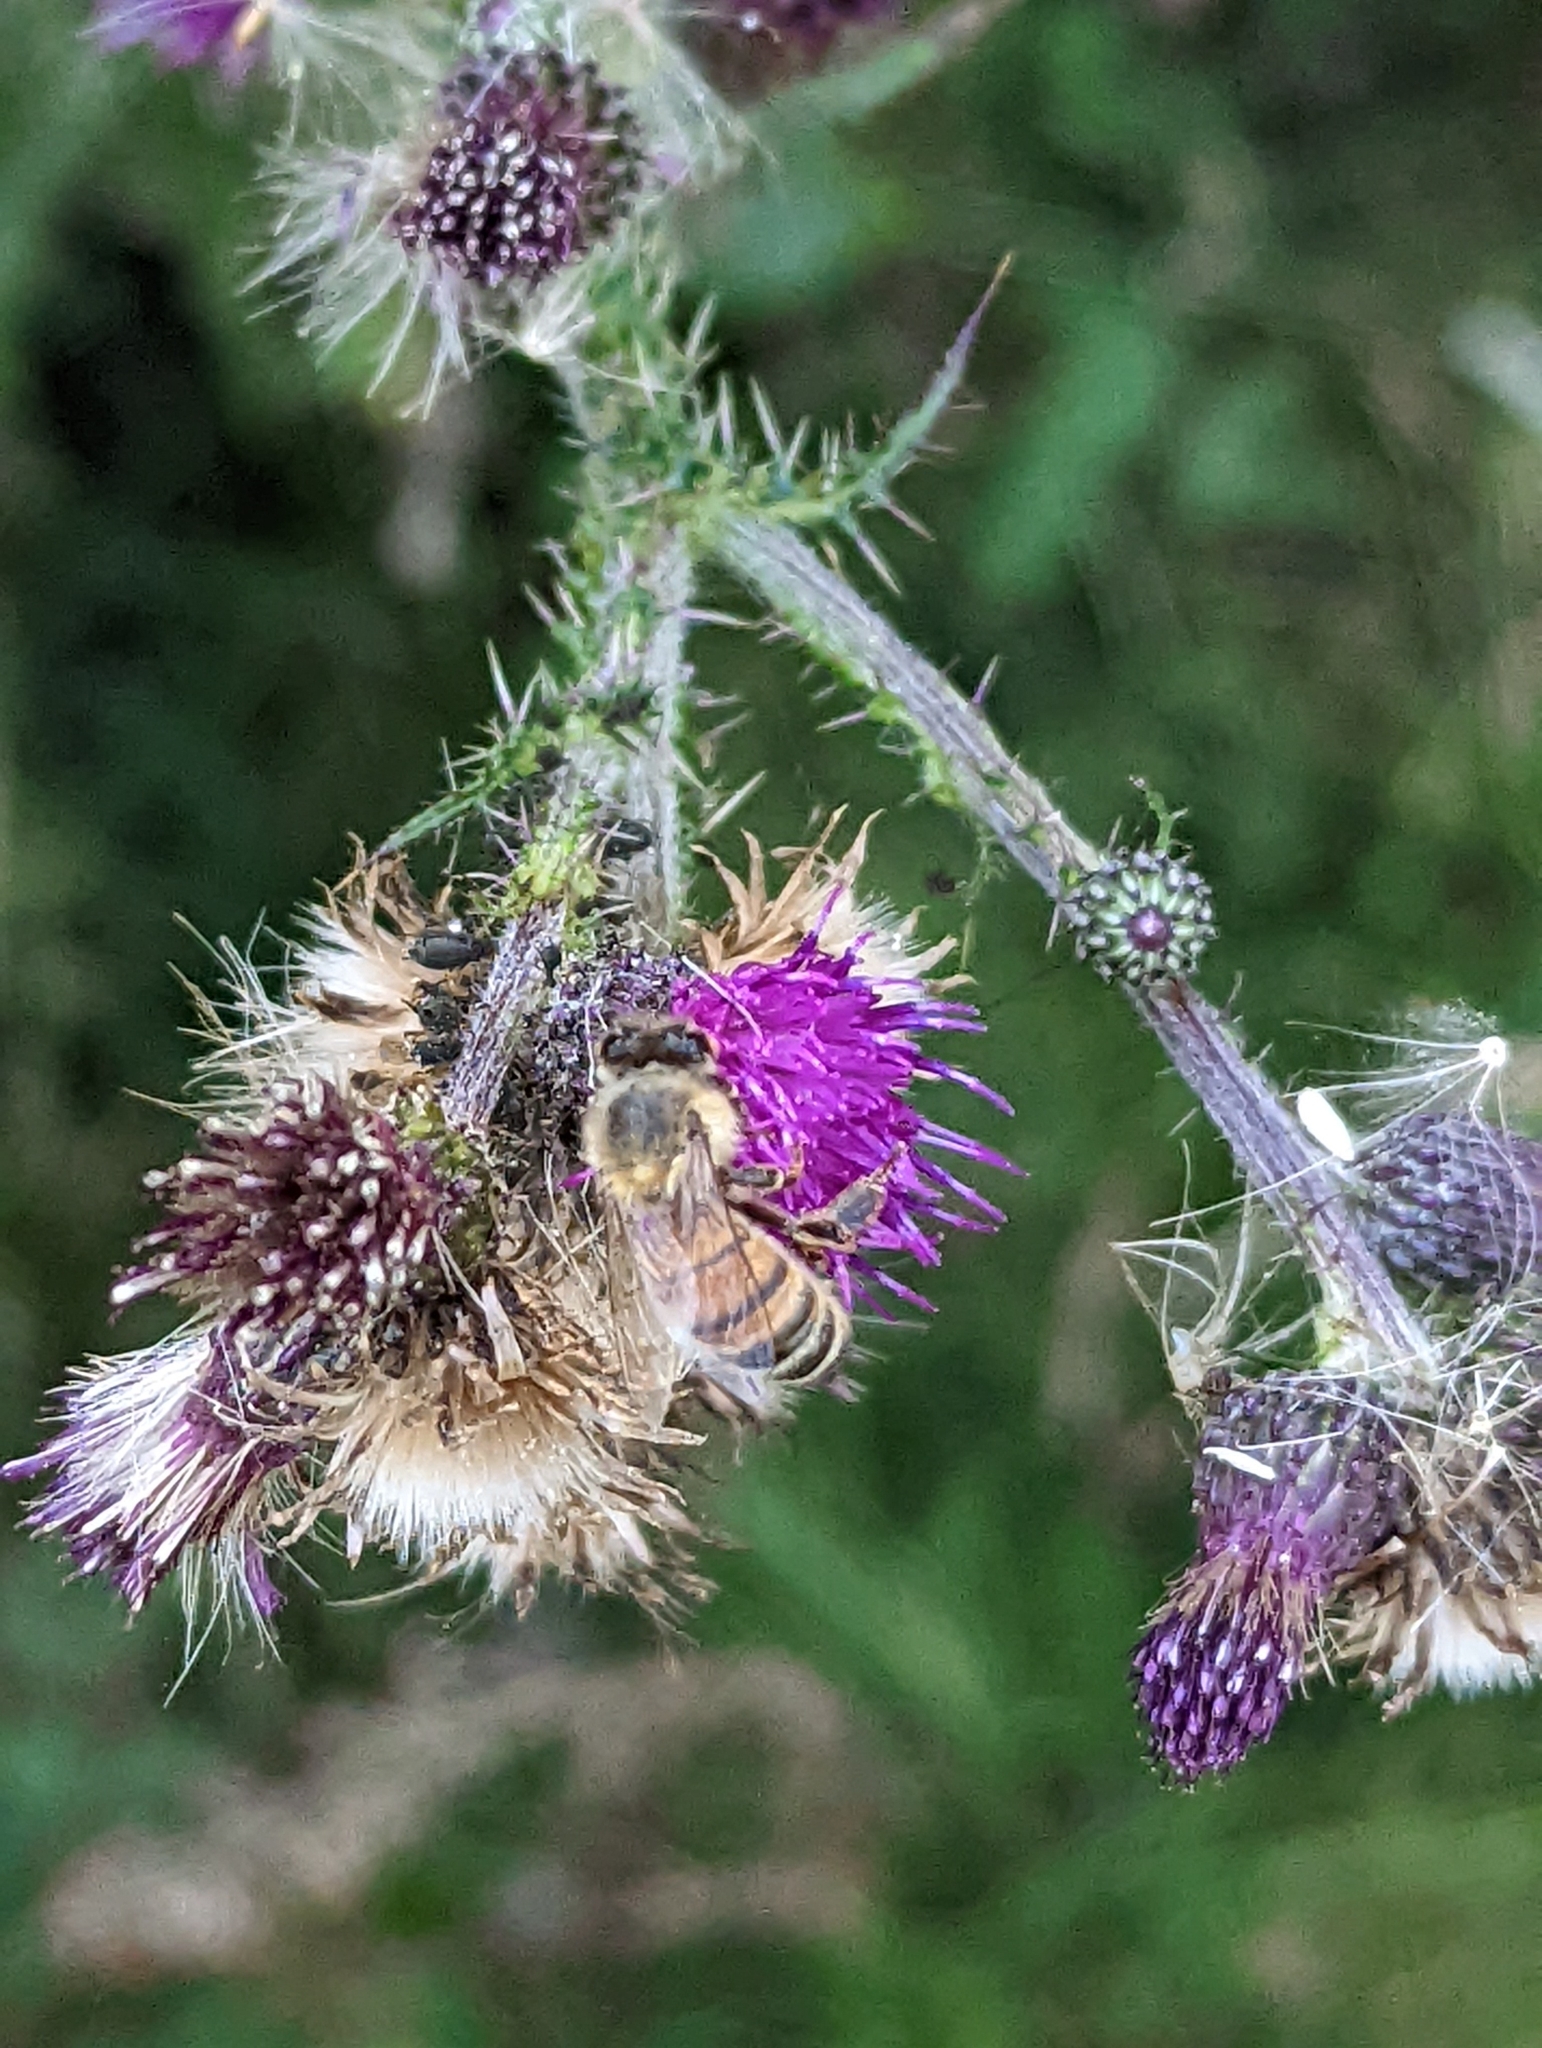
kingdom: Plantae
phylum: Tracheophyta
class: Magnoliopsida
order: Asterales
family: Asteraceae
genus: Cirsium
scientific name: Cirsium palustre
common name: Marsh thistle
